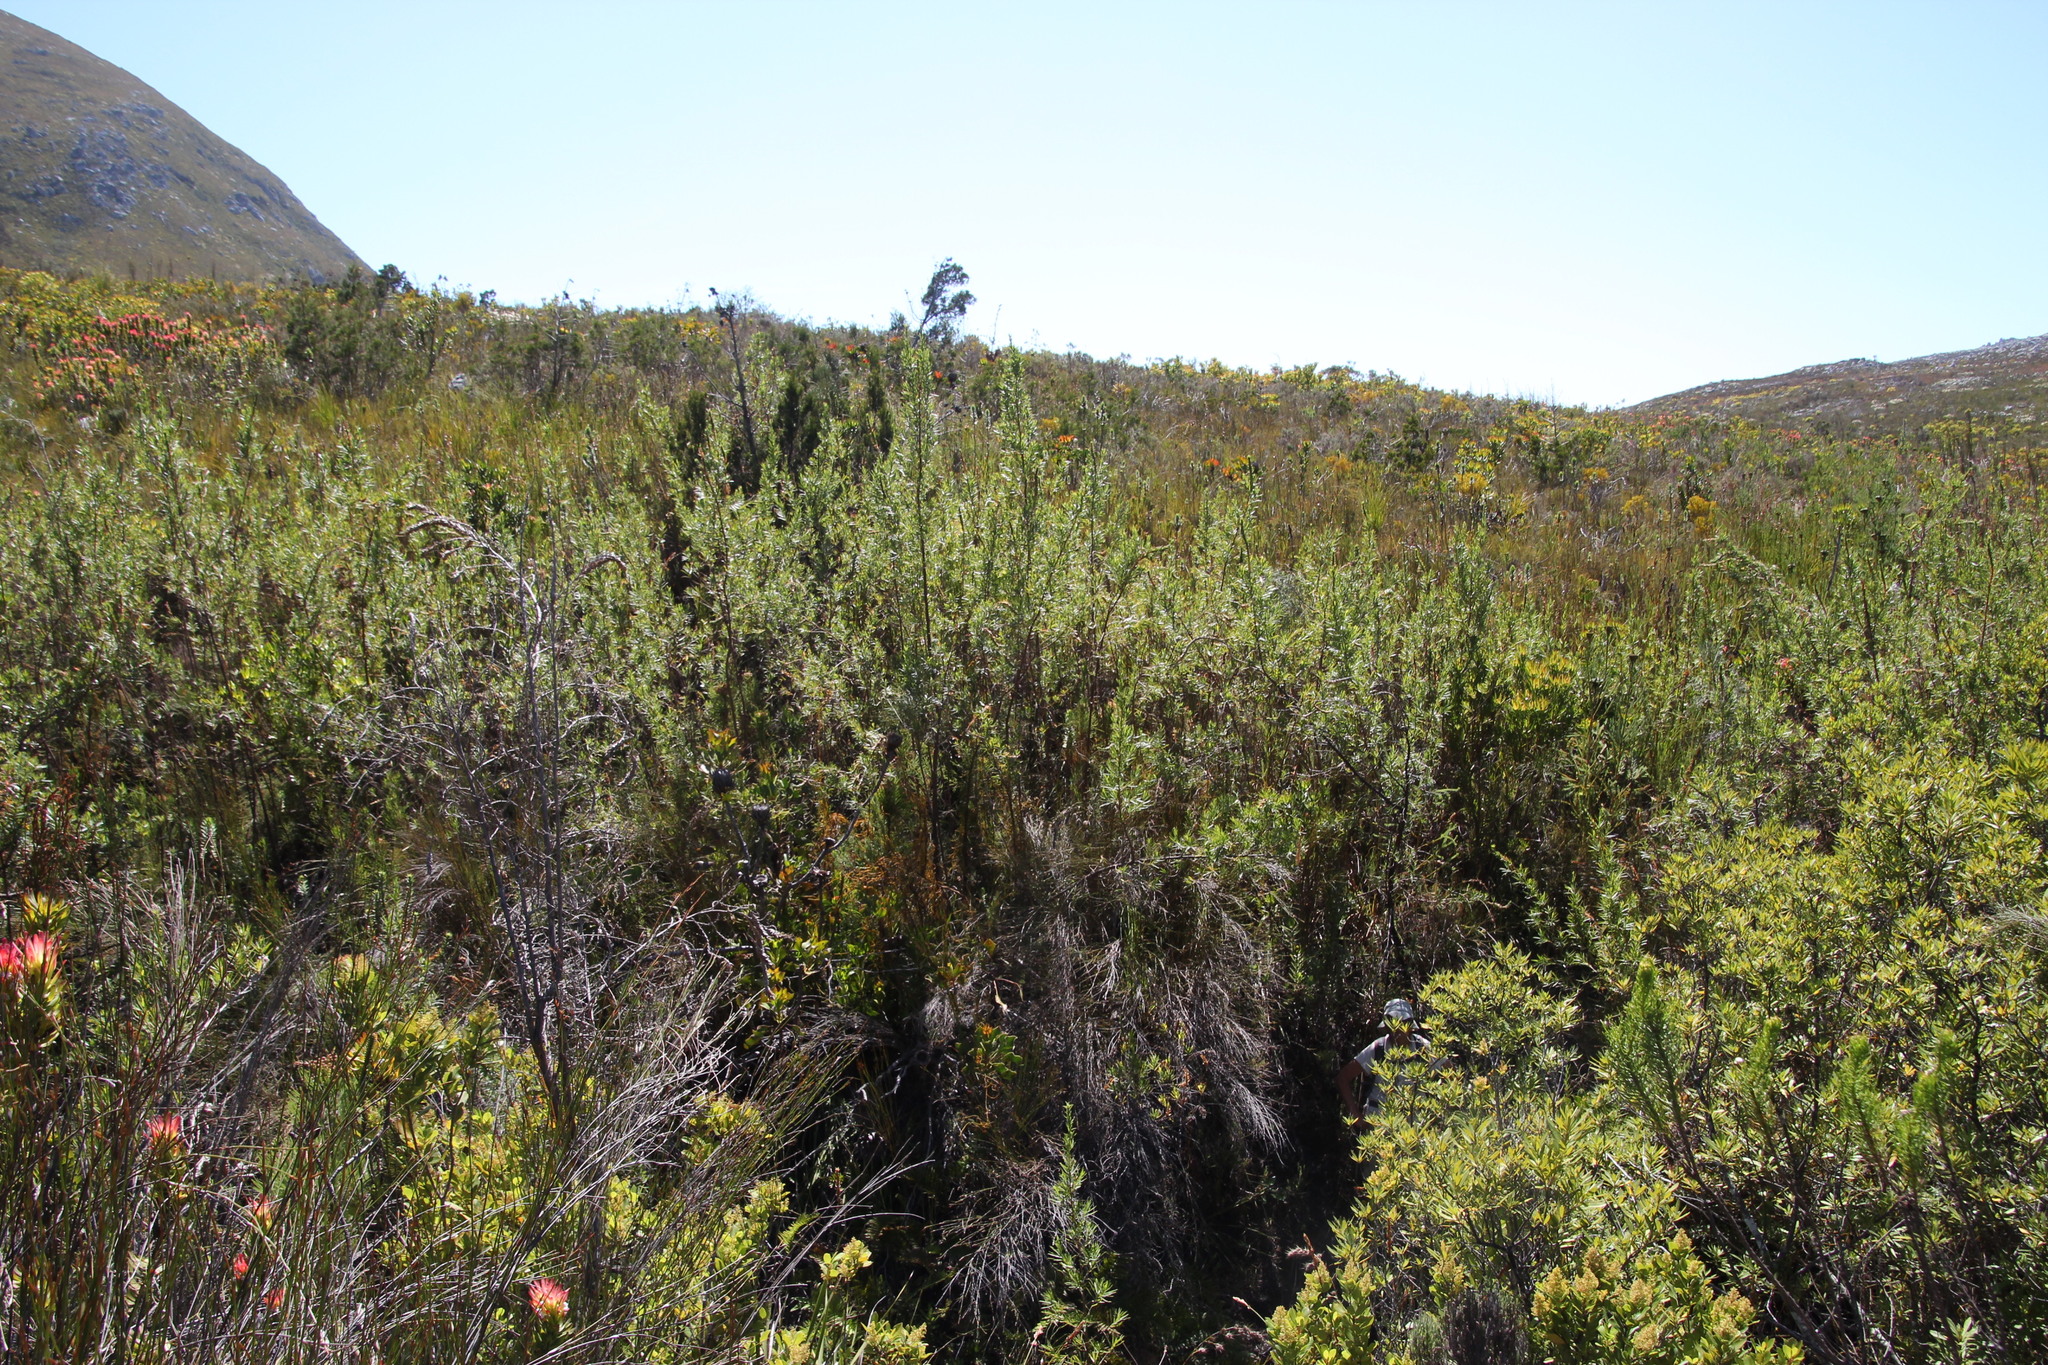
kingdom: Plantae
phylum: Tracheophyta
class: Magnoliopsida
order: Rosales
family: Rosaceae
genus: Cliffortia
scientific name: Cliffortia prionota
